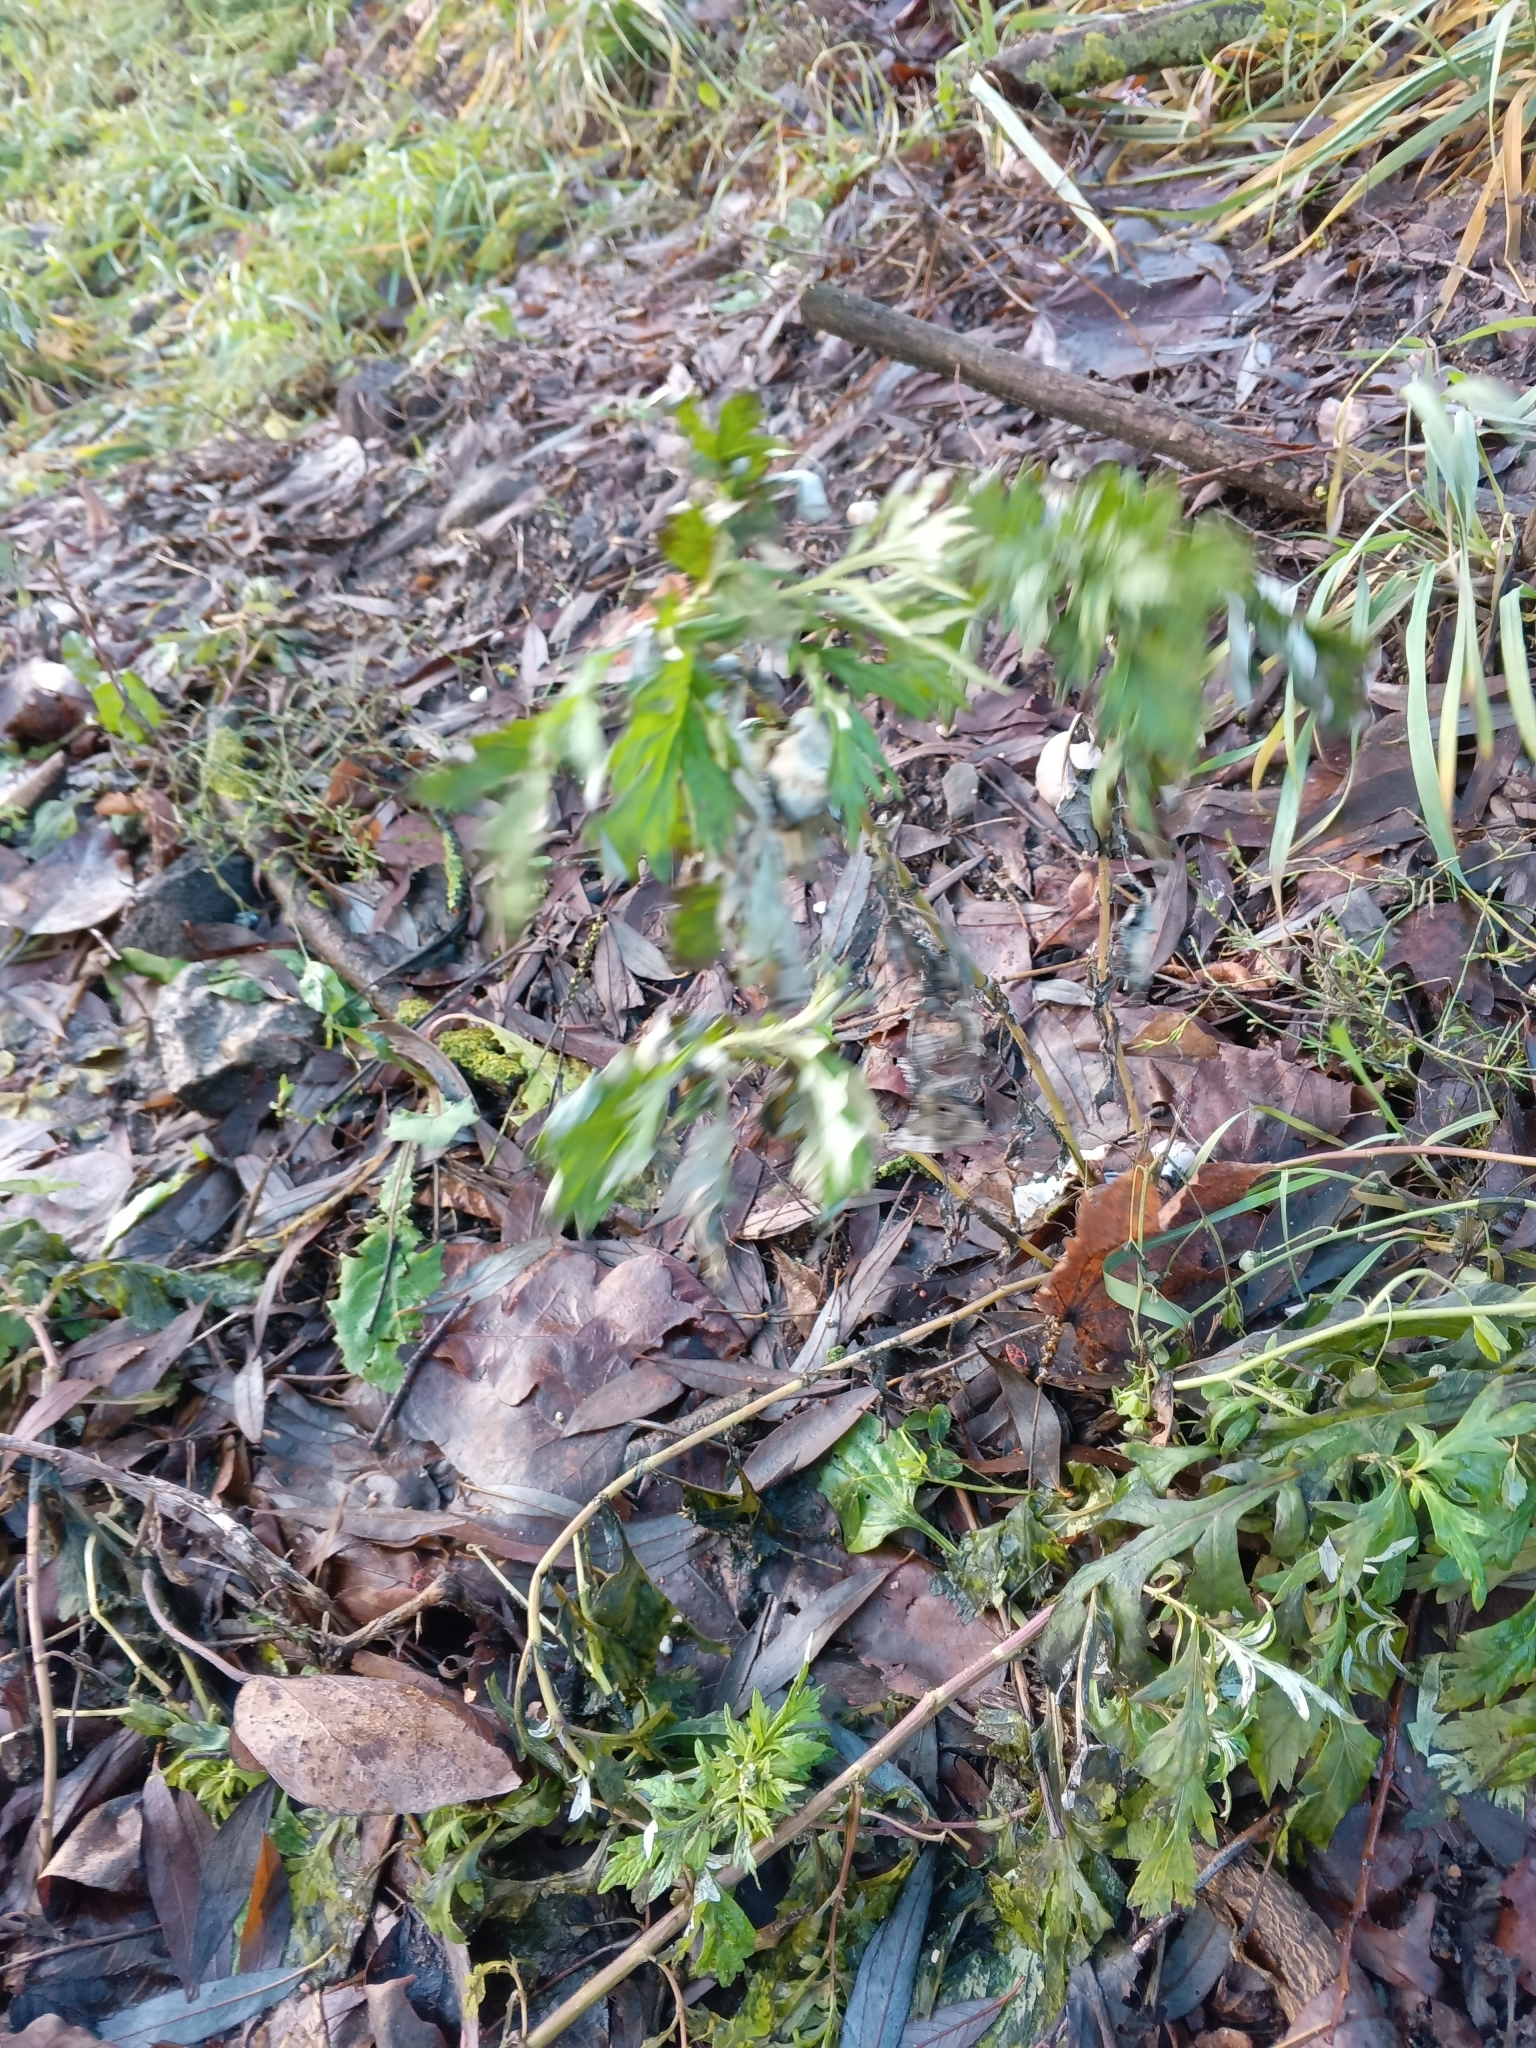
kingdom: Plantae
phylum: Tracheophyta
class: Magnoliopsida
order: Asterales
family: Asteraceae
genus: Artemisia
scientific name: Artemisia vulgaris
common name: Mugwort
